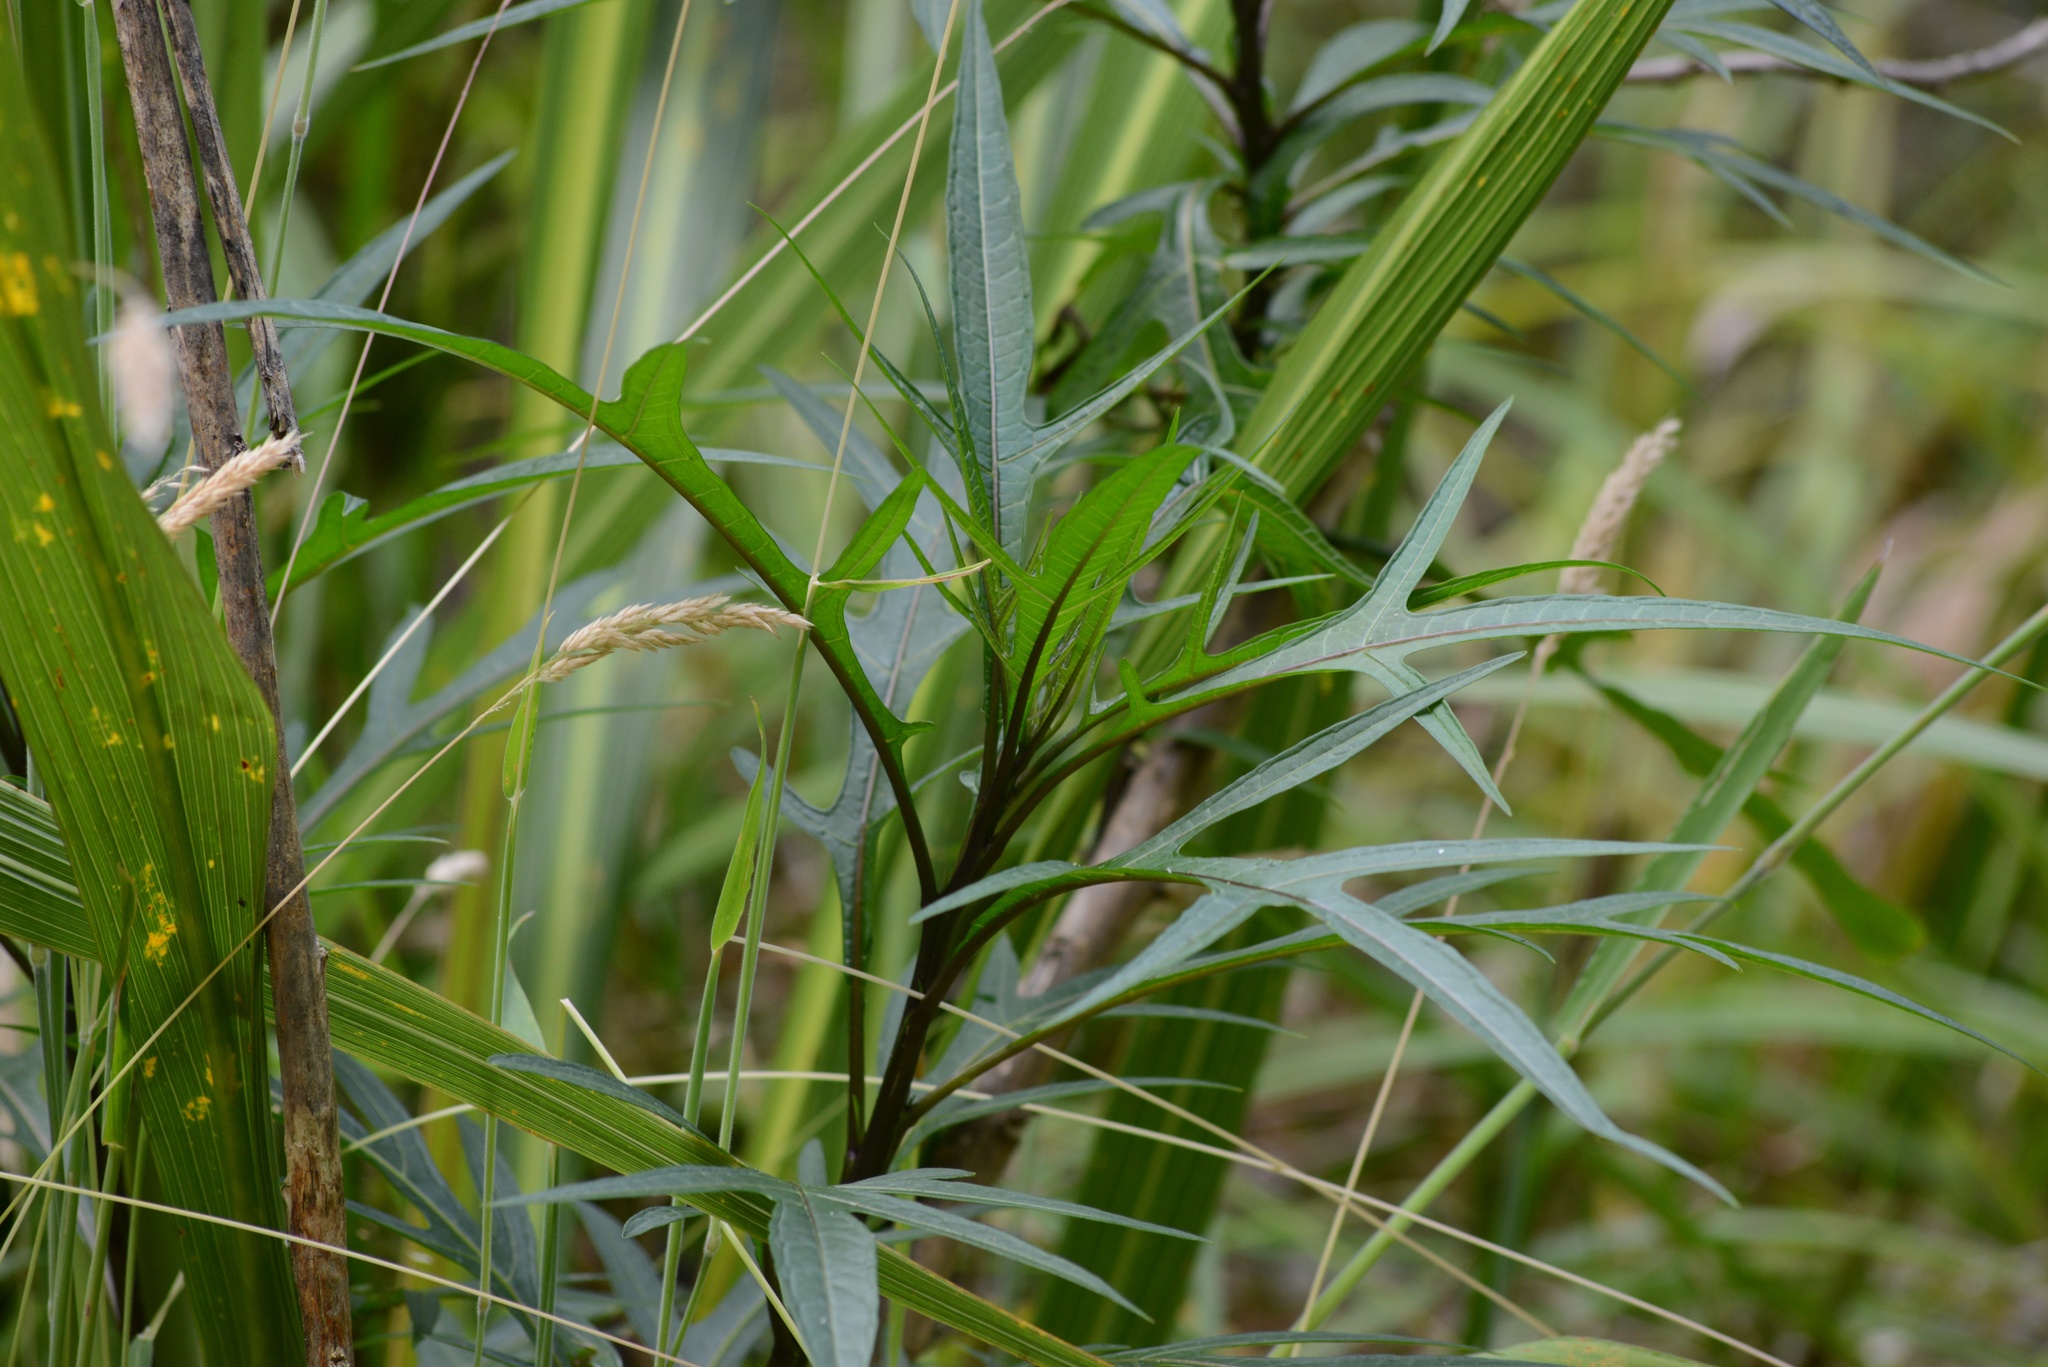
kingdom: Plantae
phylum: Tracheophyta
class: Magnoliopsida
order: Solanales
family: Solanaceae
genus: Solanum
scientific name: Solanum
